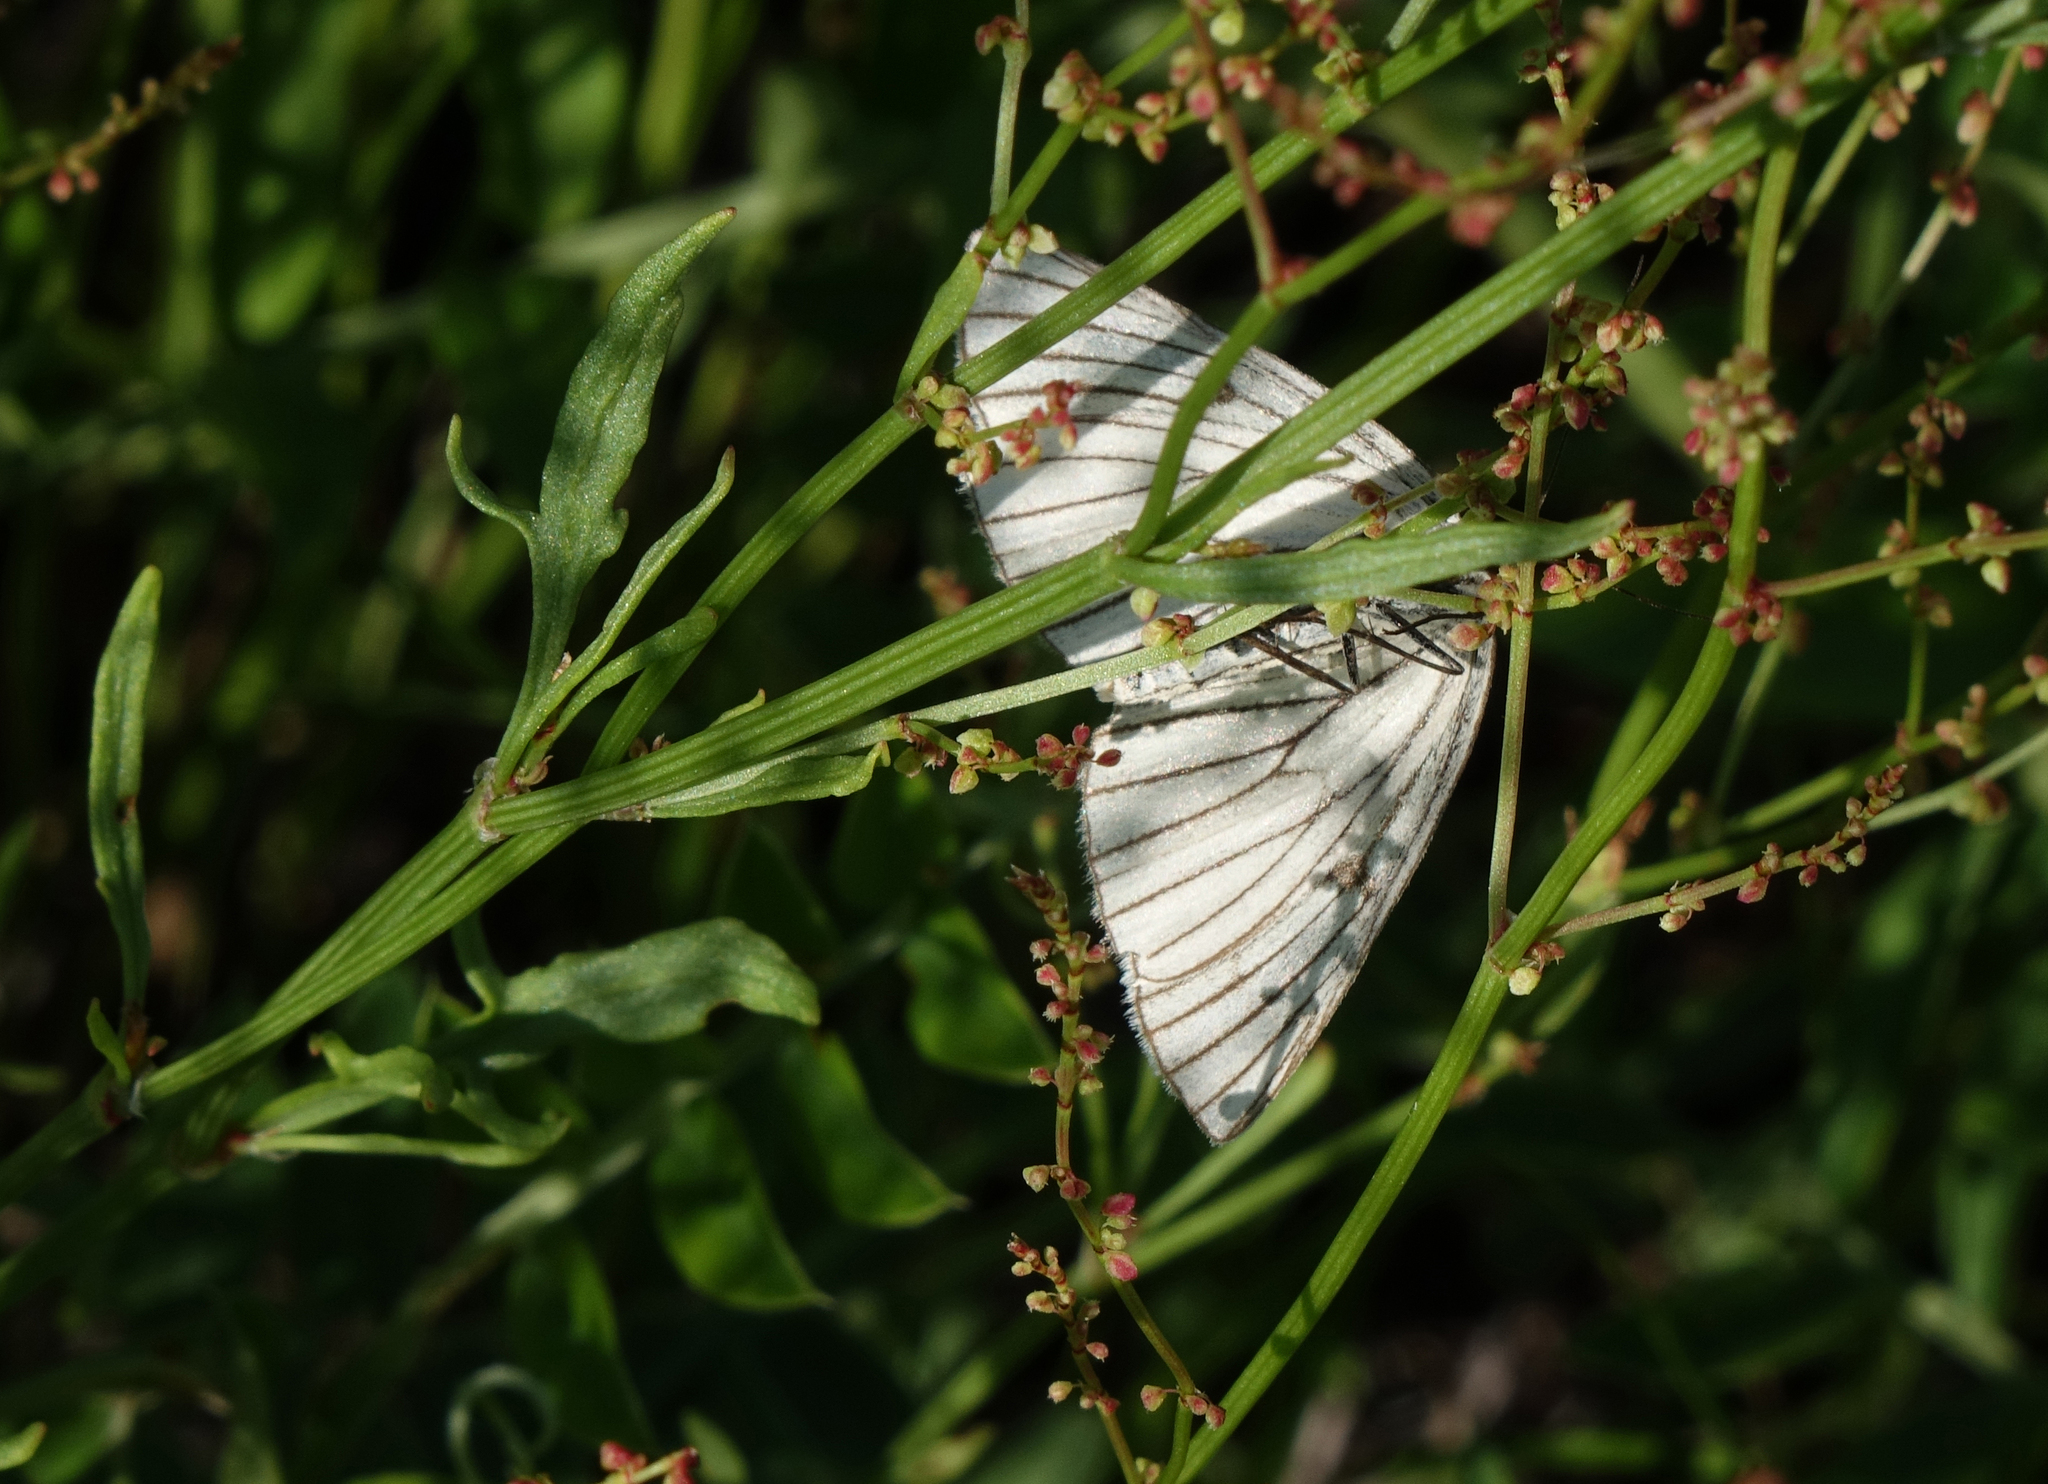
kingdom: Animalia
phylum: Arthropoda
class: Insecta
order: Lepidoptera
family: Geometridae
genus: Siona
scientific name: Siona lineata
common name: Black-veined moth
